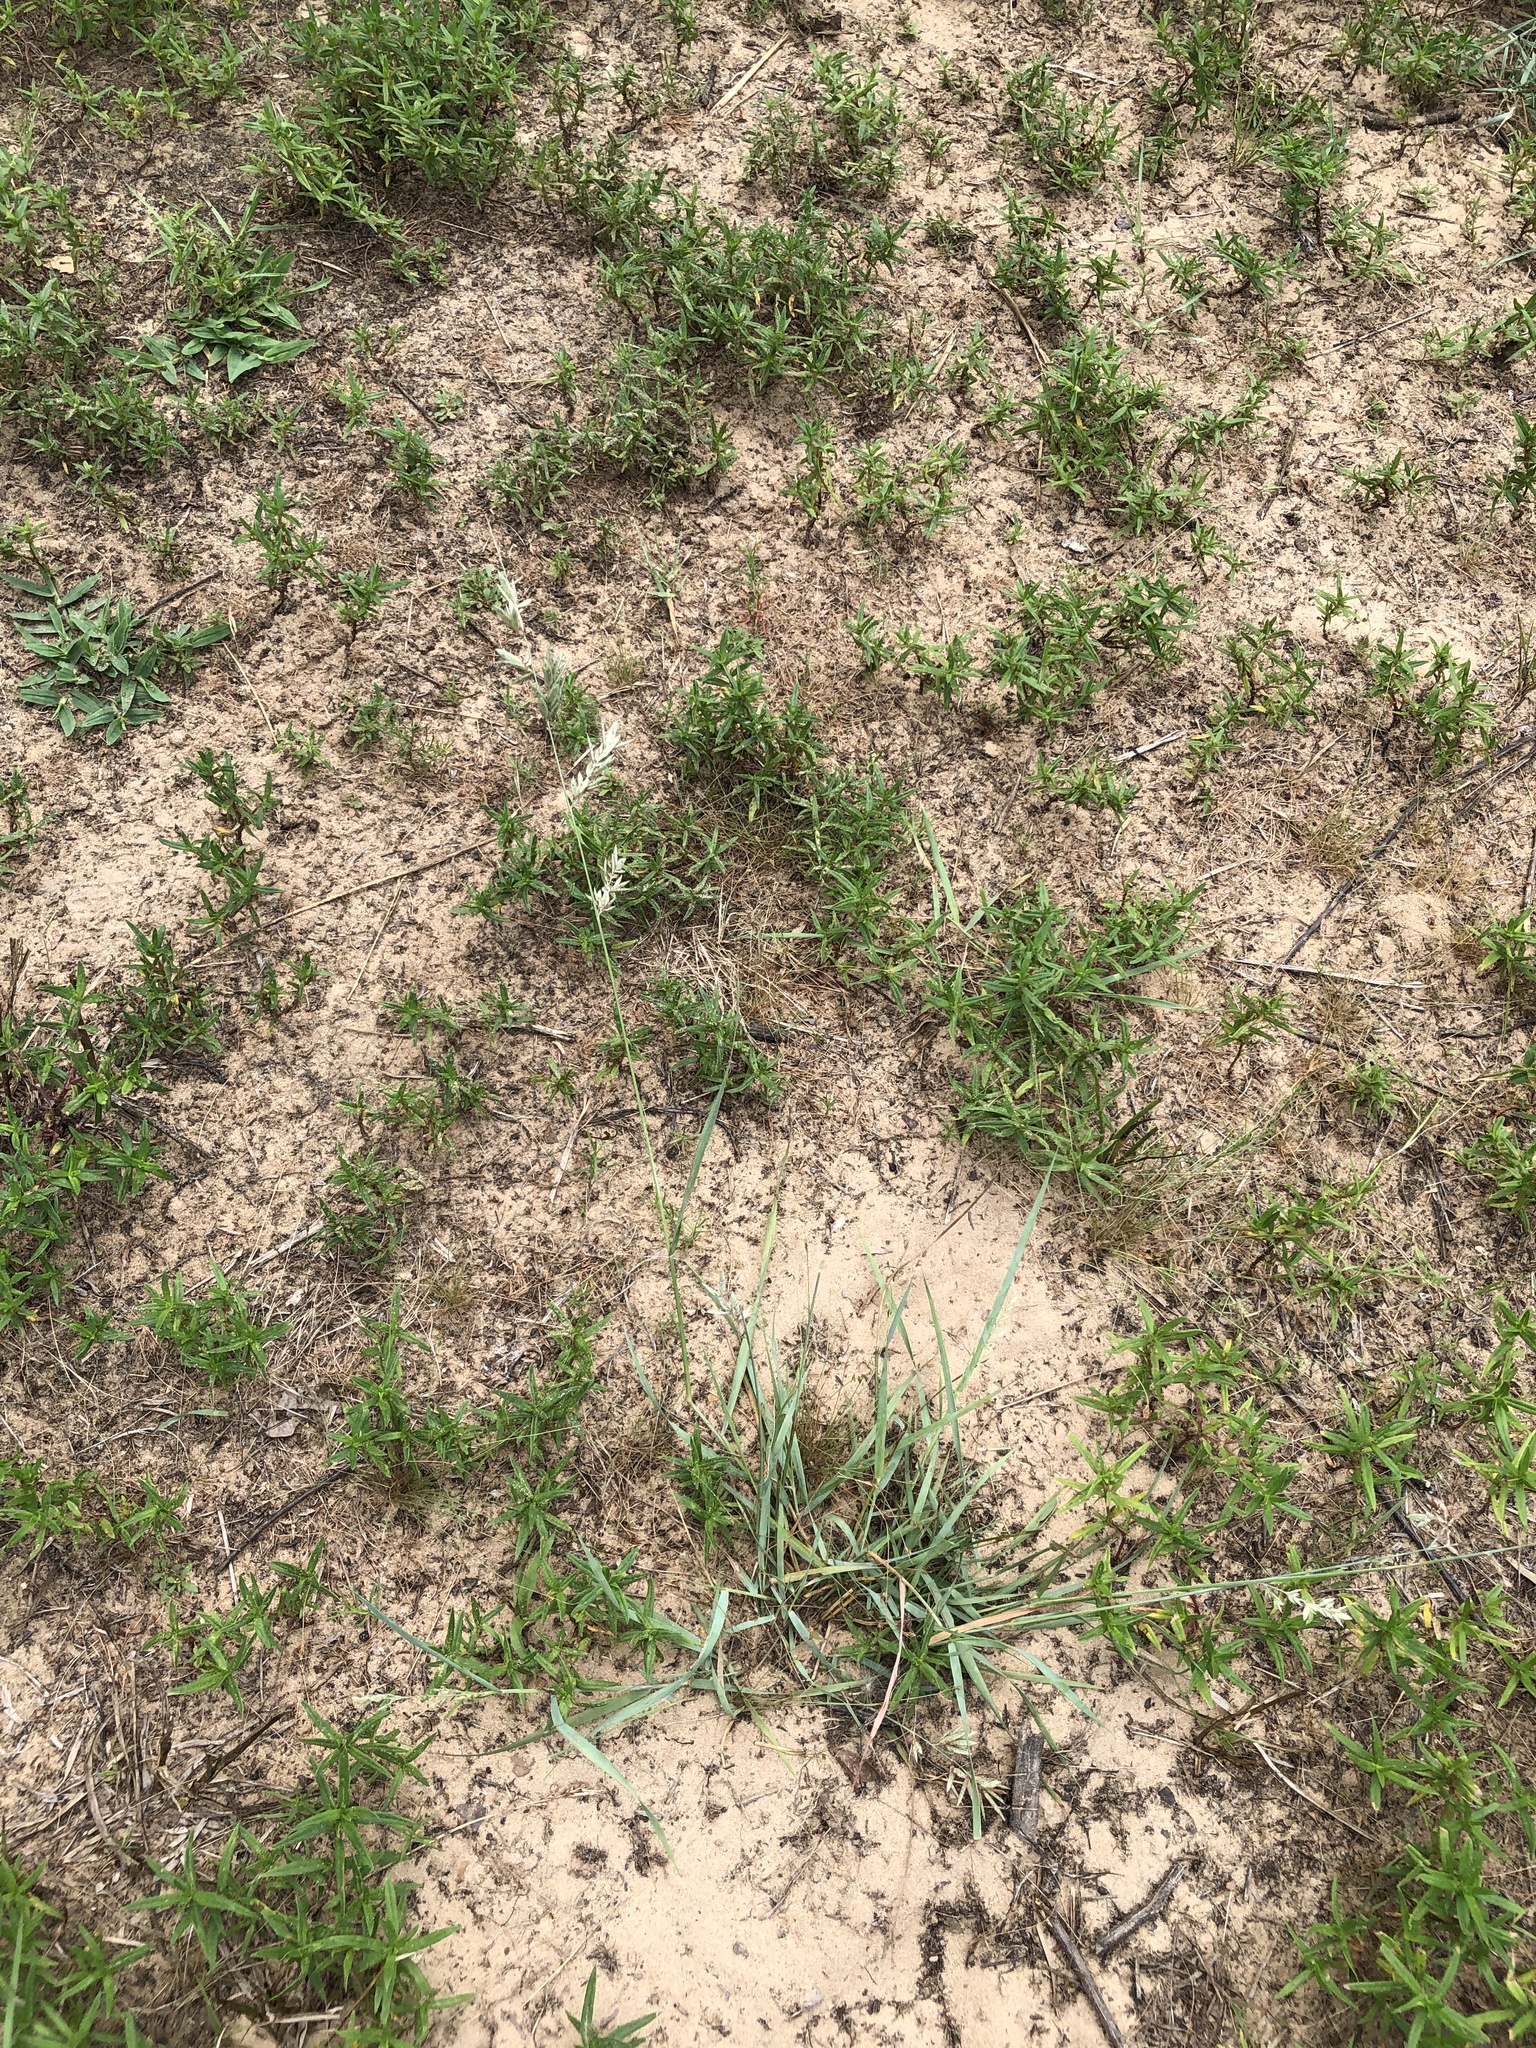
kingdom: Plantae
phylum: Tracheophyta
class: Liliopsida
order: Poales
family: Poaceae
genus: Eragrostis
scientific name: Eragrostis secundiflora
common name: Red love grass
